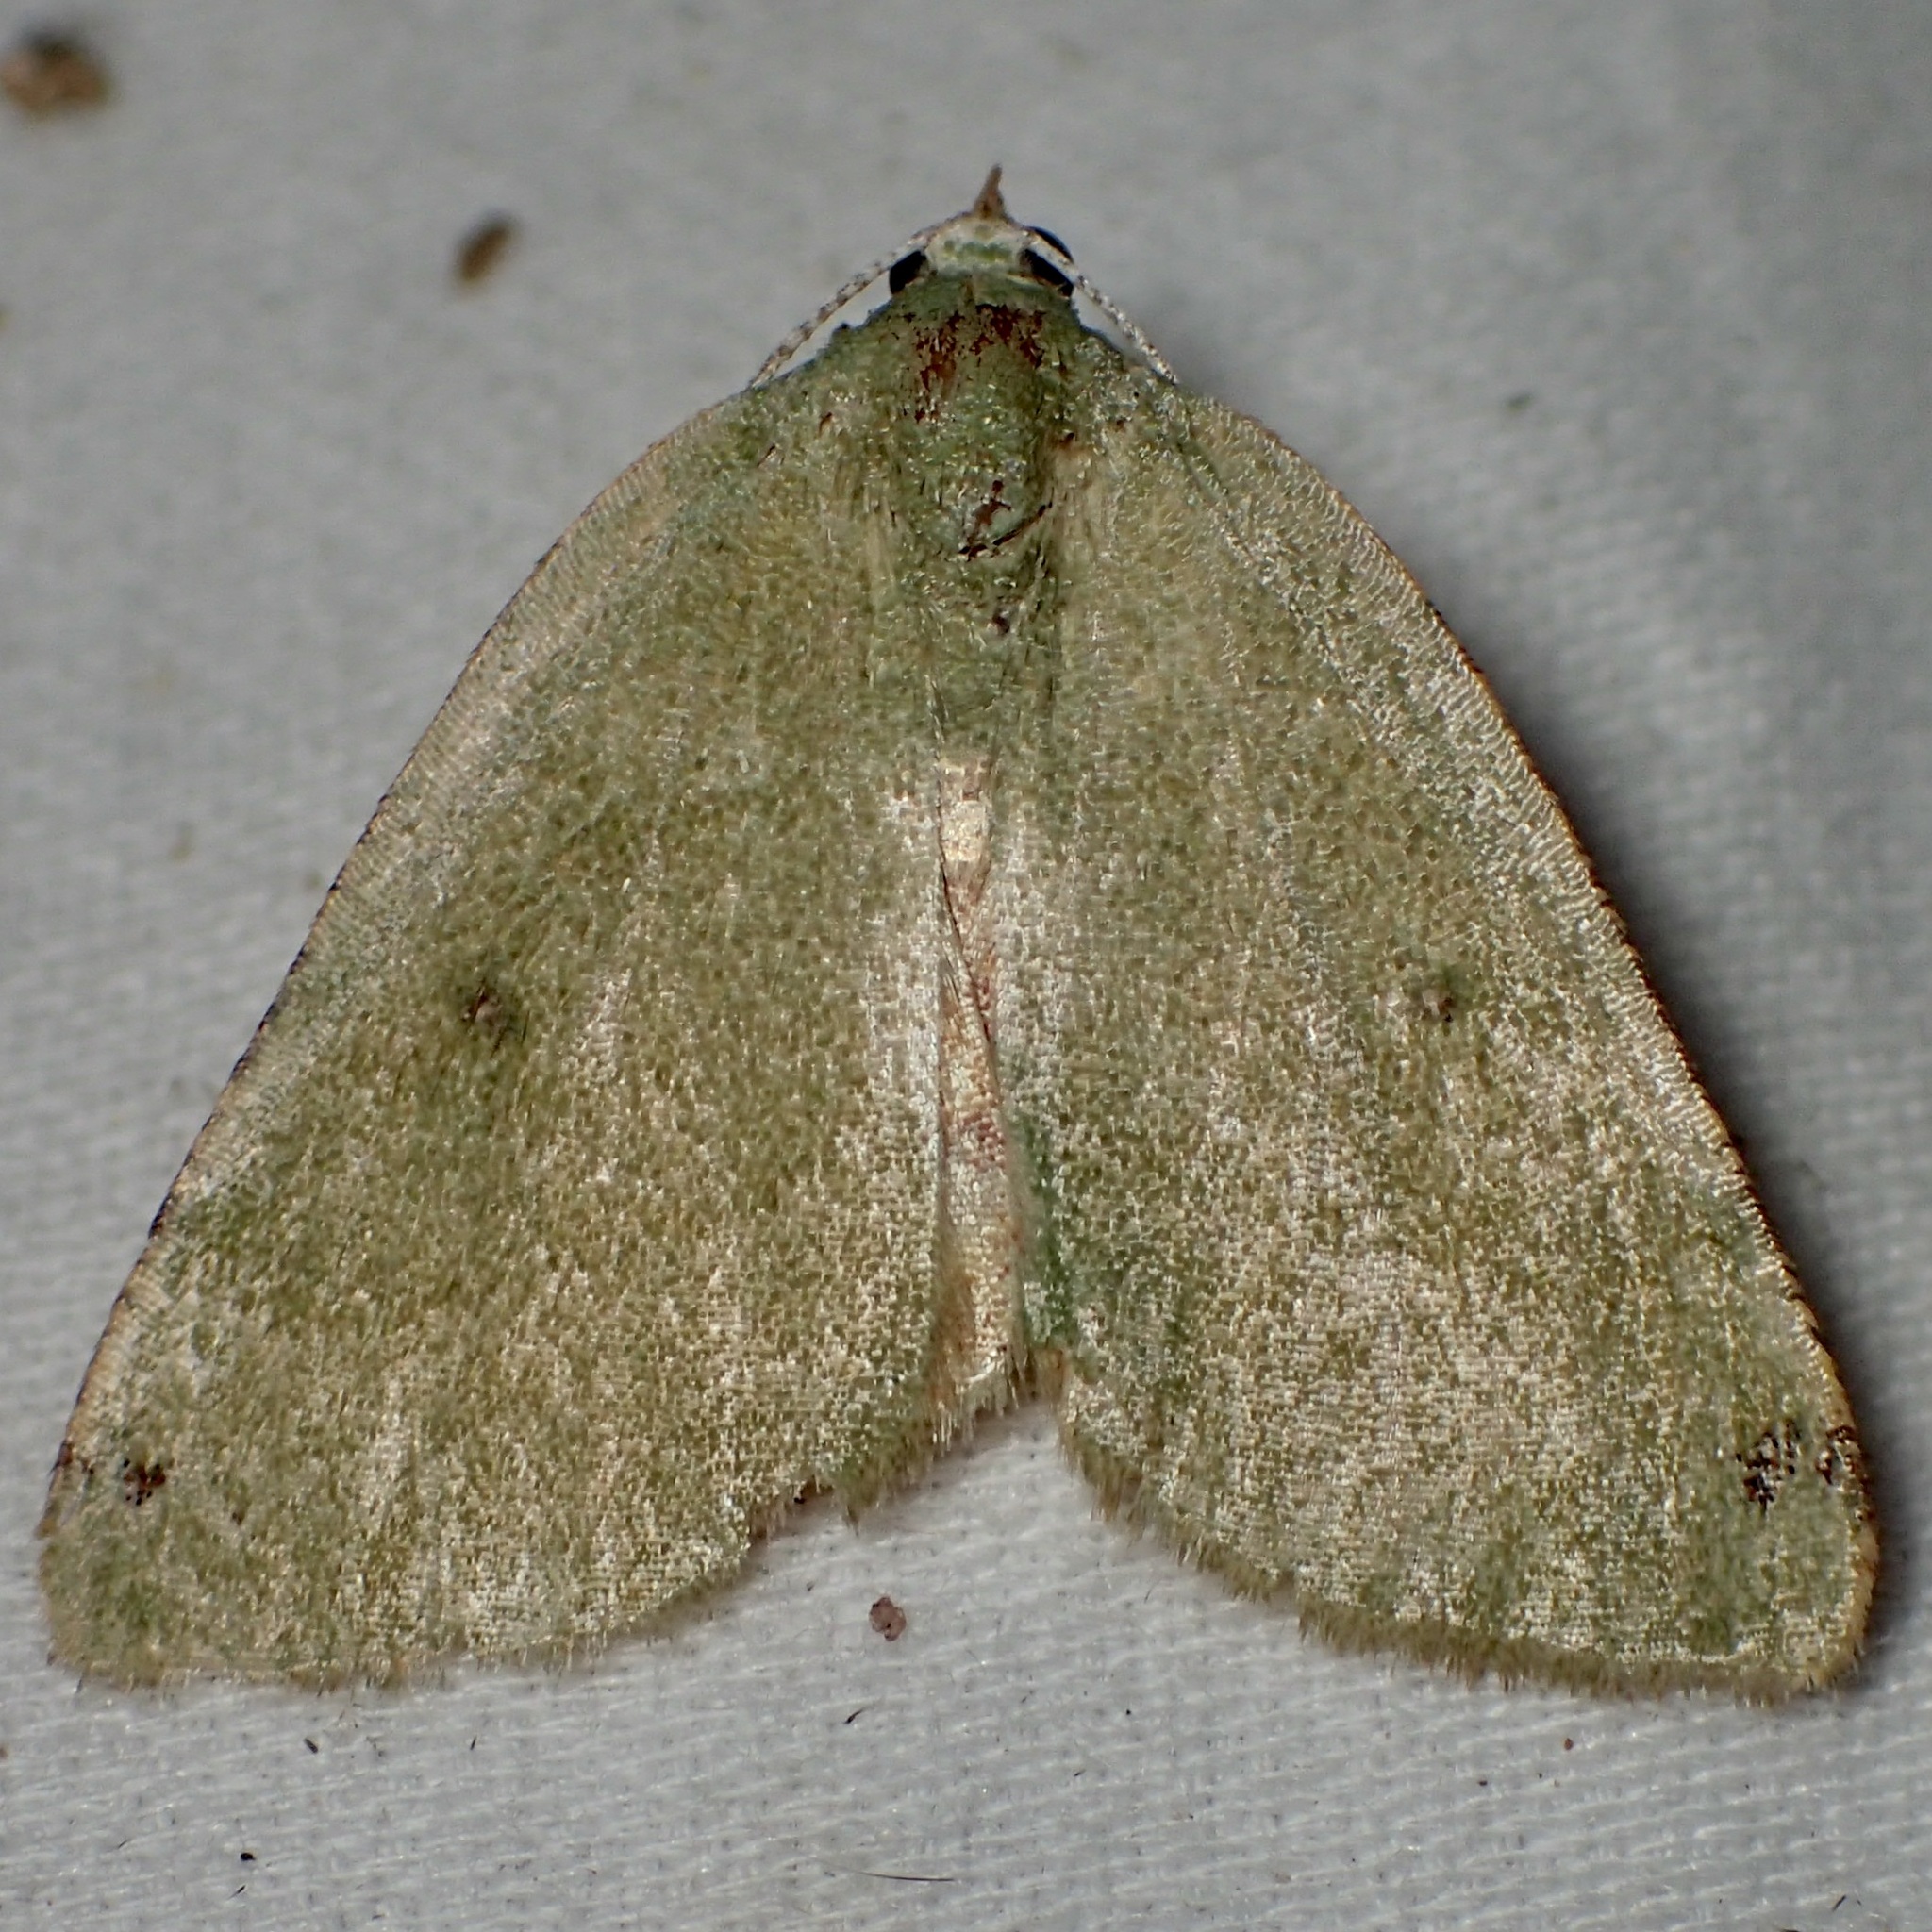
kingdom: Animalia
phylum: Arthropoda
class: Insecta
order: Lepidoptera
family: Geometridae
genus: Chloraspilates
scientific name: Chloraspilates bicoloraria
